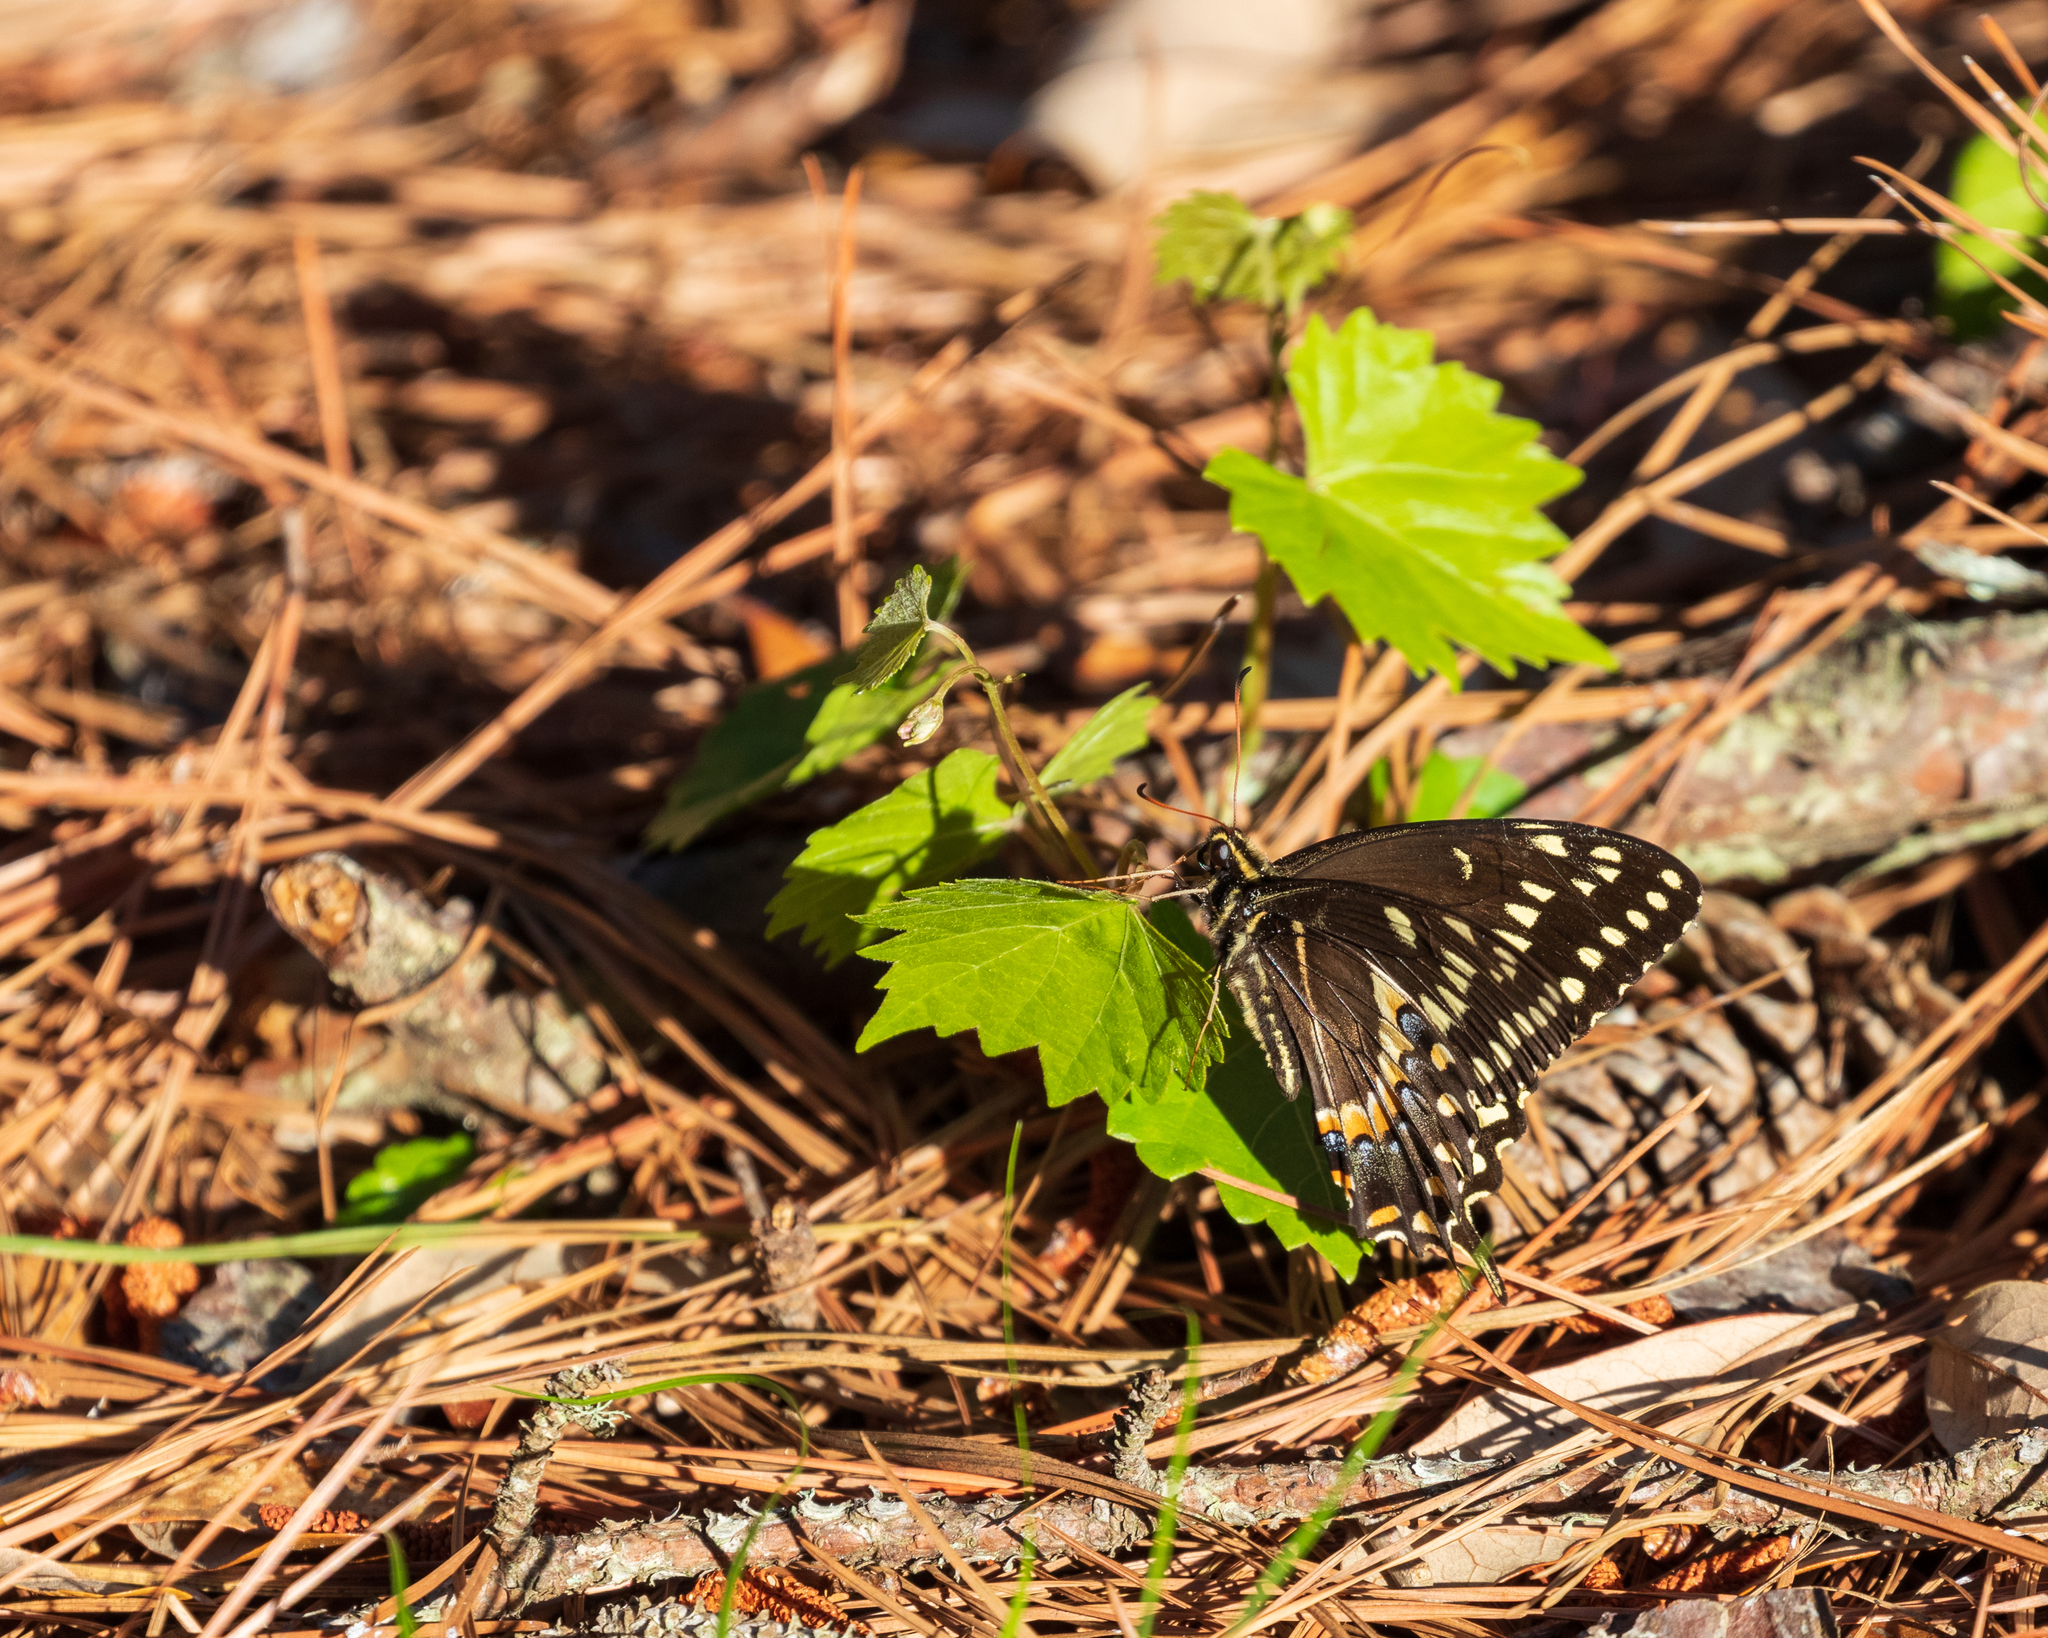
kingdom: Animalia
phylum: Arthropoda
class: Insecta
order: Lepidoptera
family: Papilionidae
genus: Papilio
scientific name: Papilio palamedes
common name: Palamedes swallowtail
